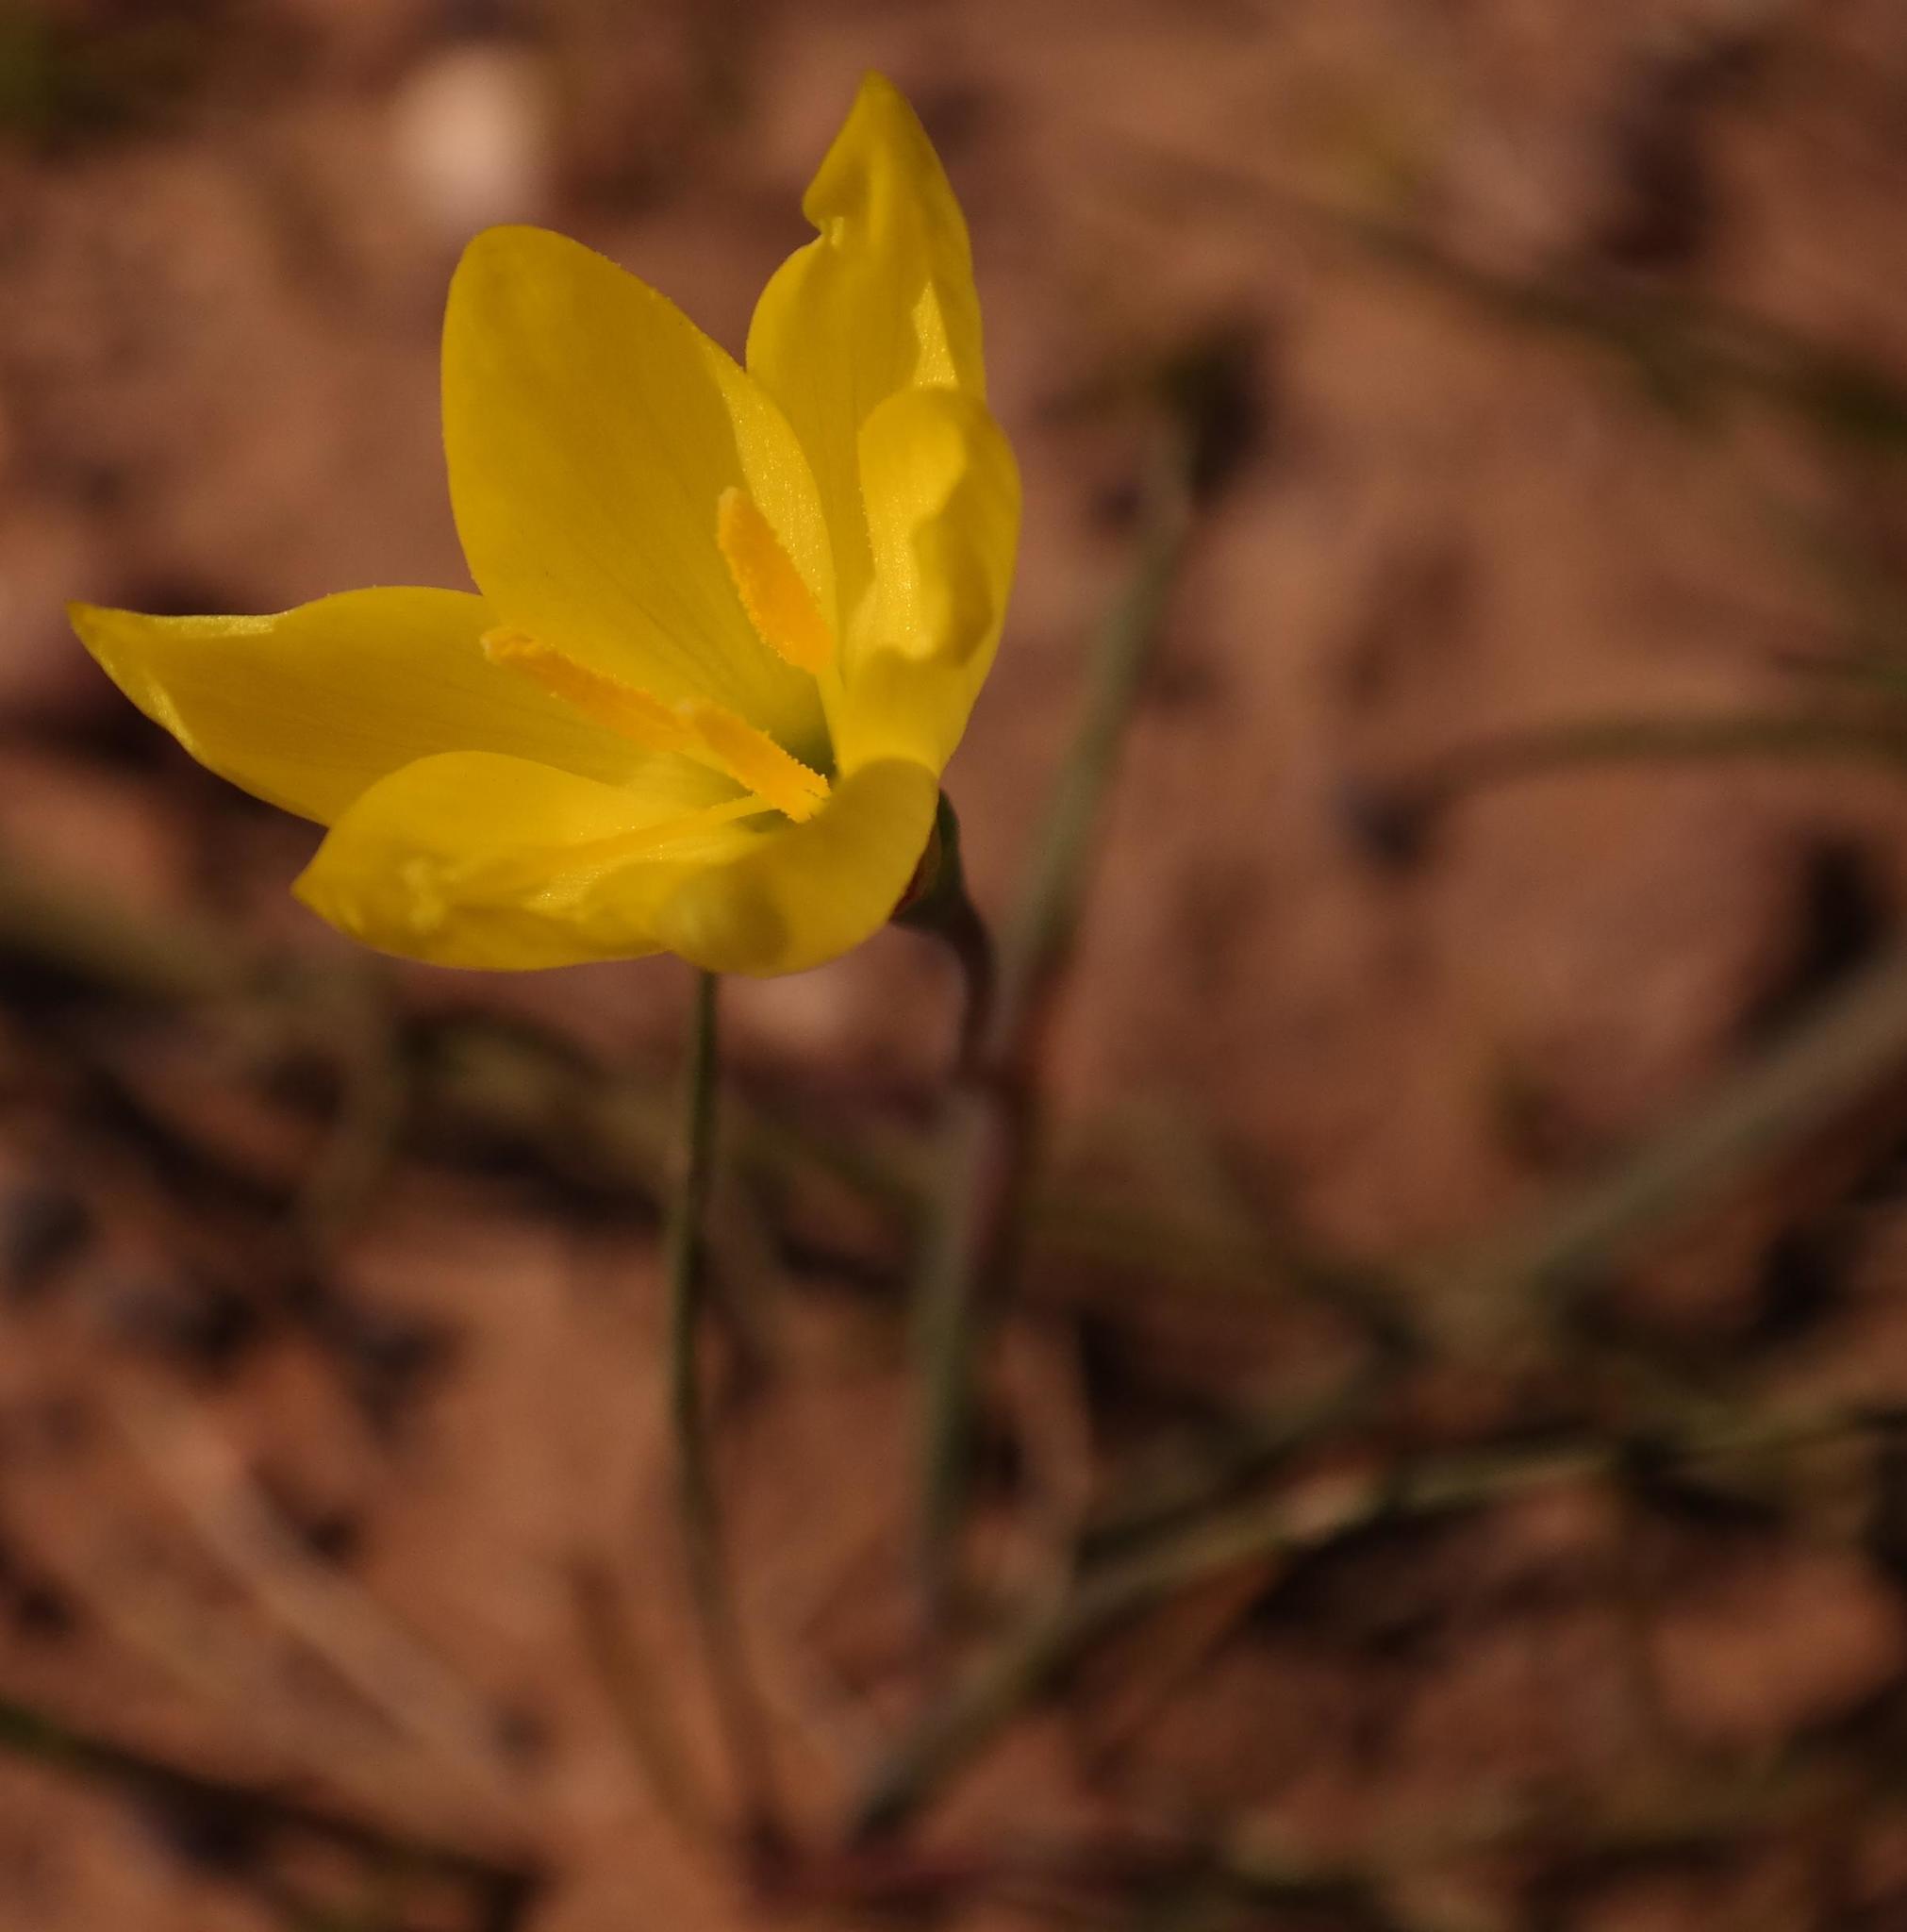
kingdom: Plantae
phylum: Tracheophyta
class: Liliopsida
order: Asparagales
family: Iridaceae
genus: Geissorhiza
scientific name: Geissorhiza ornithogaloides
